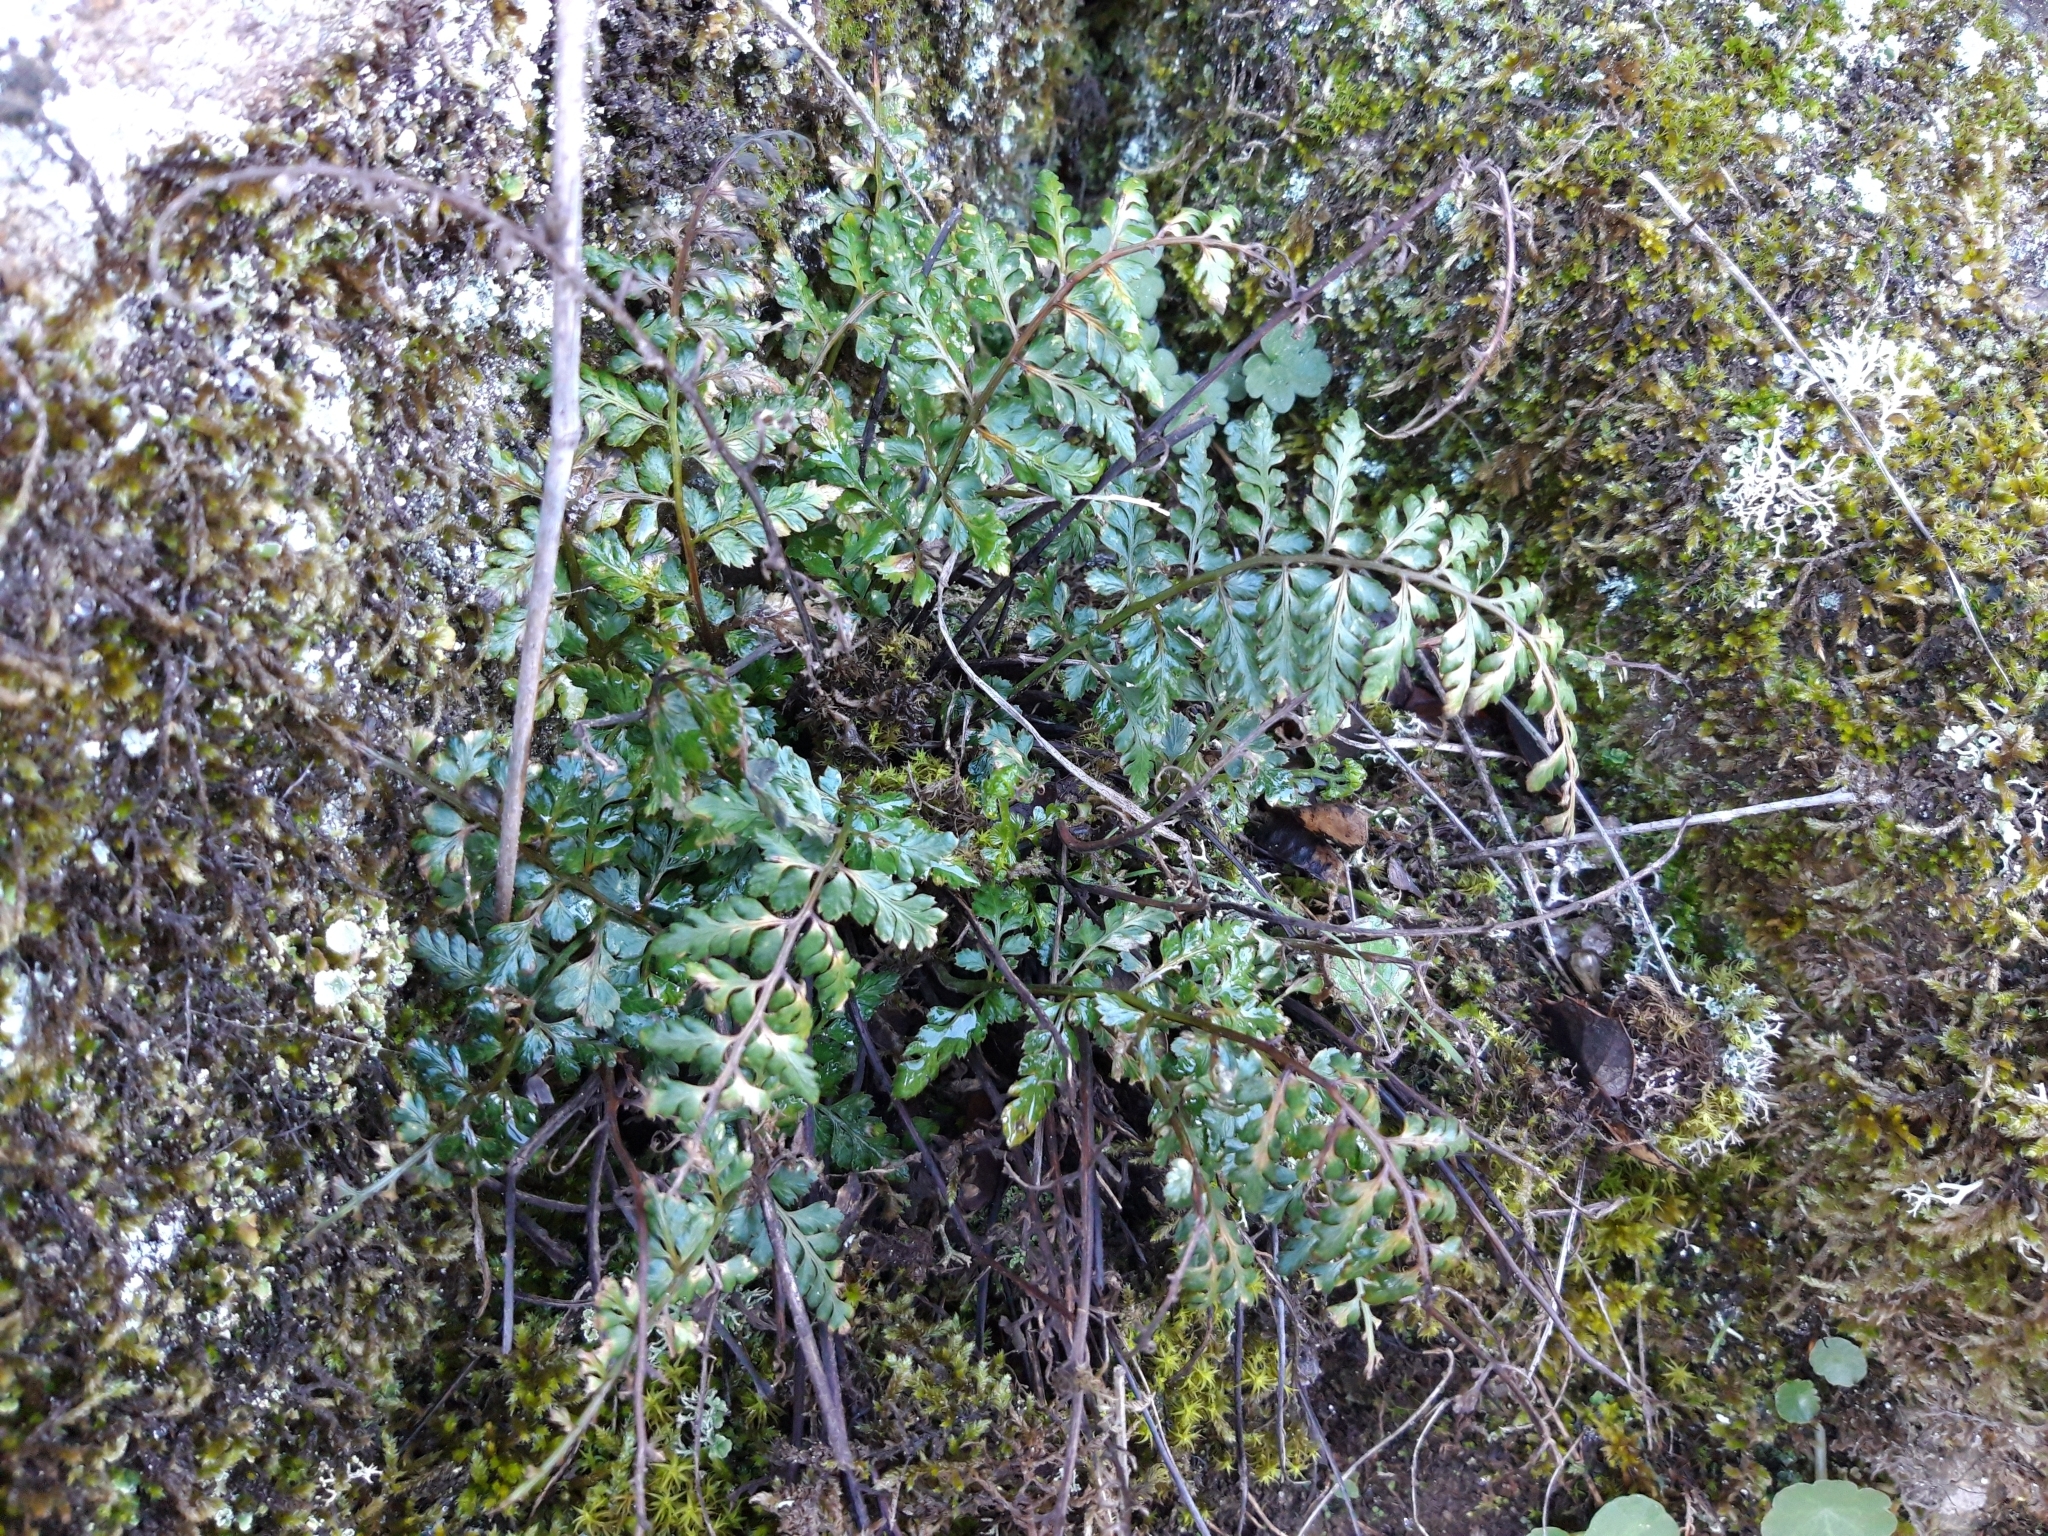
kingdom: Plantae
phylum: Tracheophyta
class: Polypodiopsida
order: Polypodiales
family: Aspleniaceae
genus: Asplenium
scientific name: Asplenium obovatum
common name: Lanceolate spleenwort
